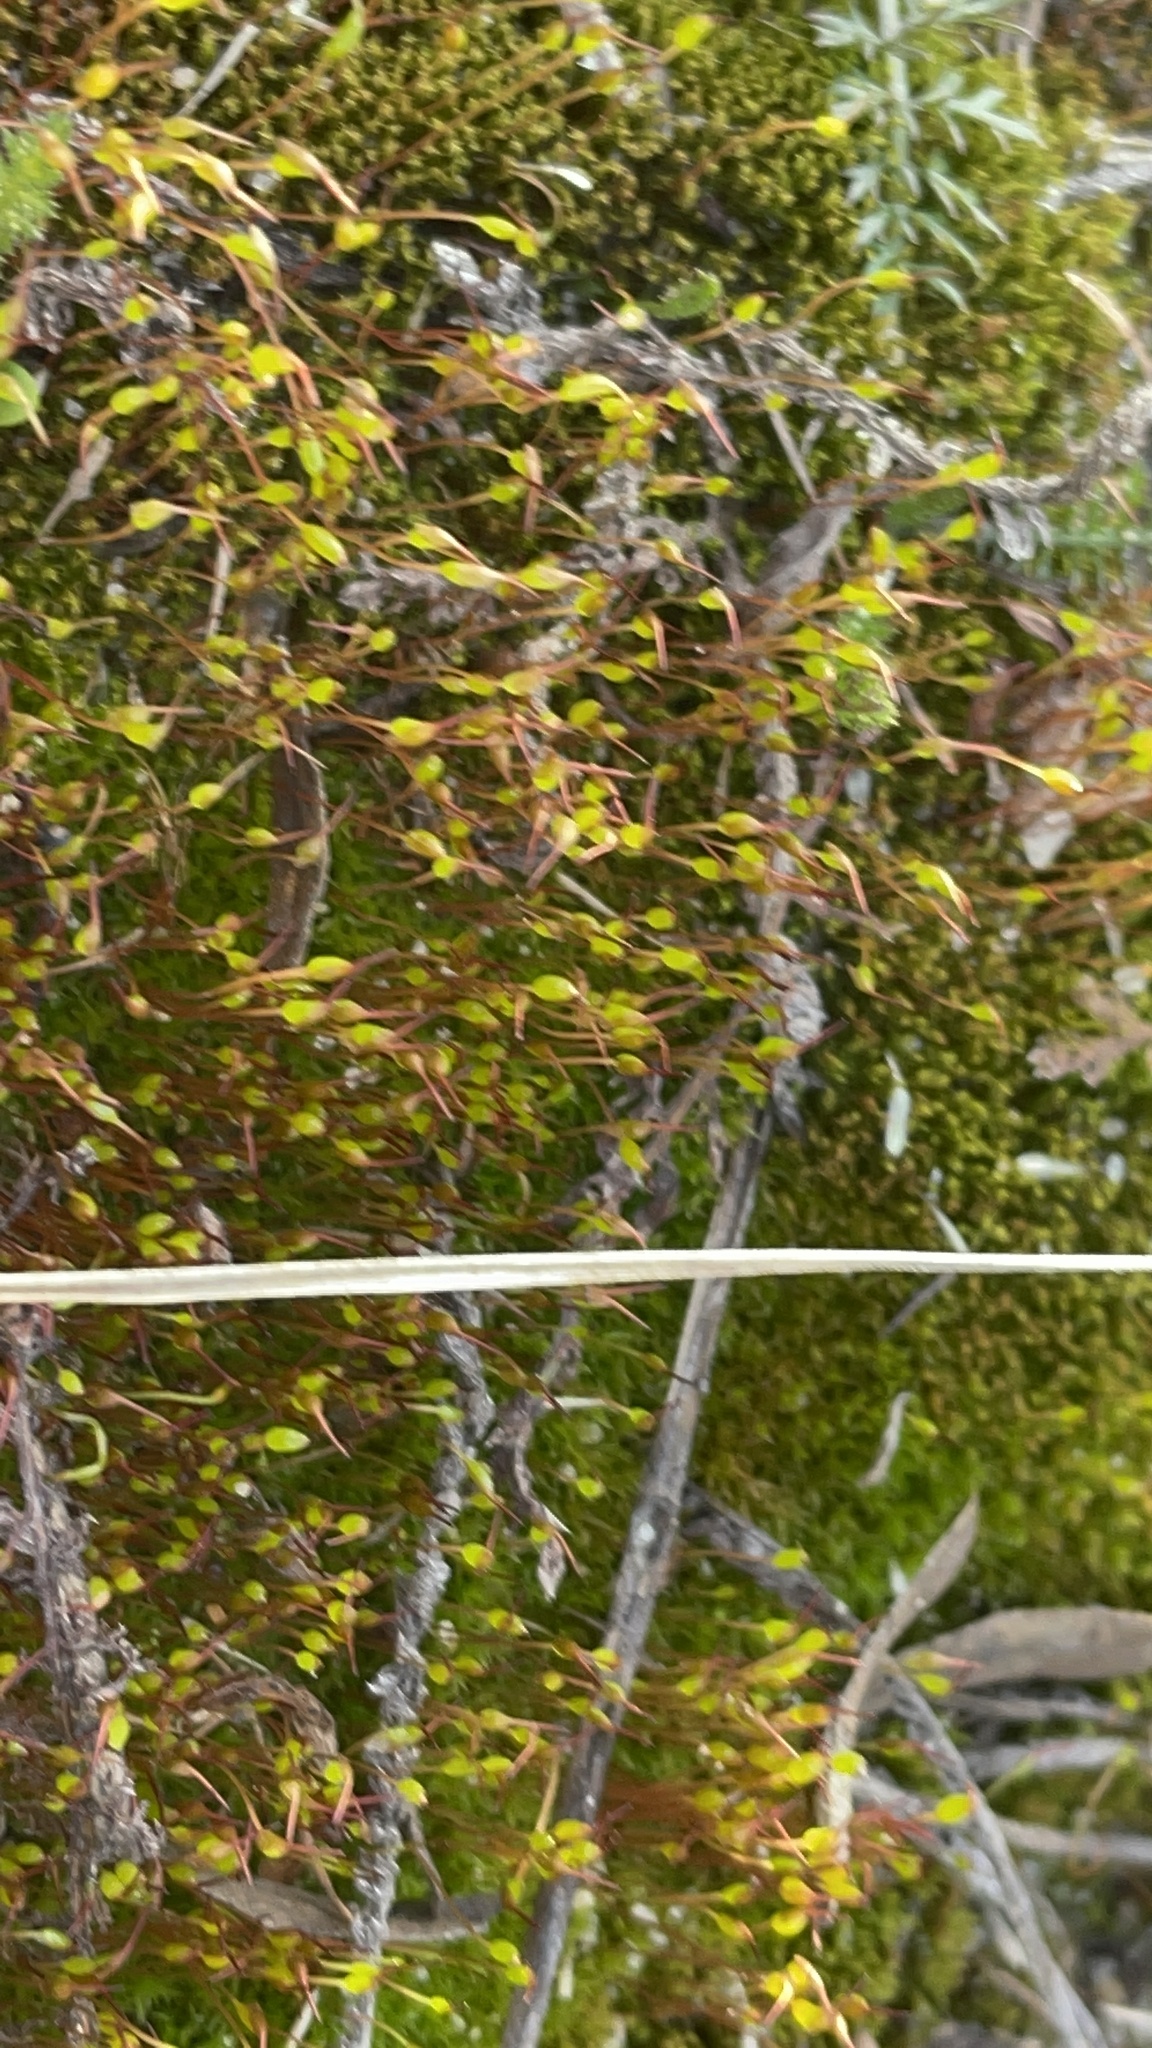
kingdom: Plantae
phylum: Bryophyta
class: Bryopsida
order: Dicranales
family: Ditrichaceae
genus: Ceratodon
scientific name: Ceratodon purpureus
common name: Redshank
